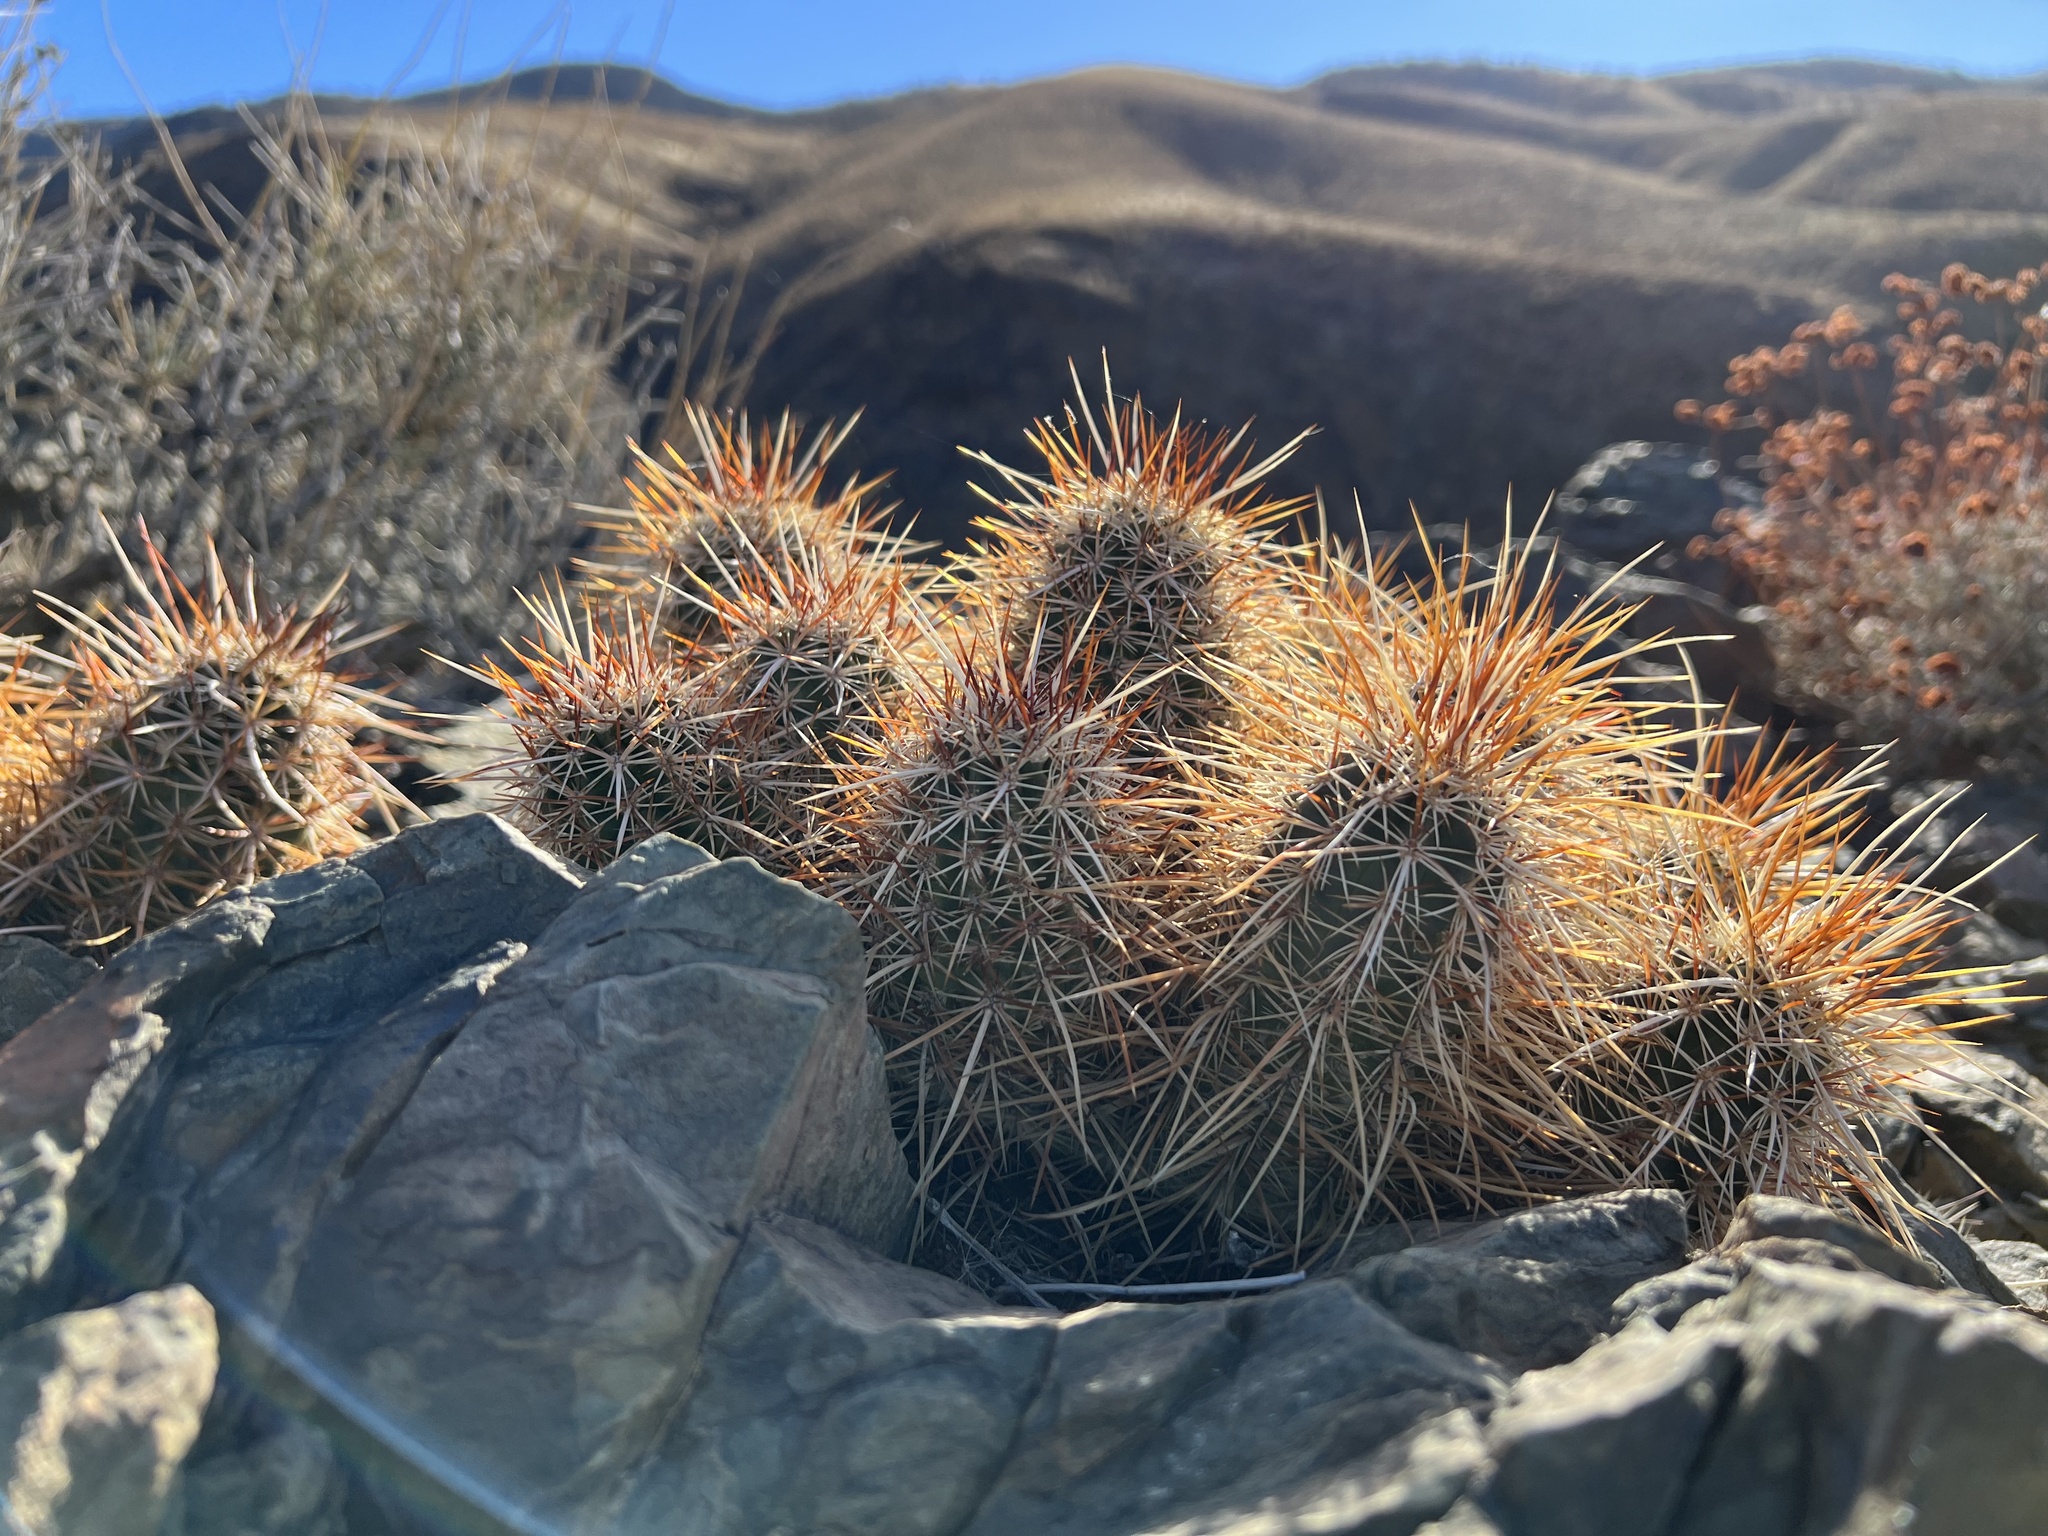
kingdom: Plantae
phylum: Tracheophyta
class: Magnoliopsida
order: Caryophyllales
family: Cactaceae
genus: Echinocereus
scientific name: Echinocereus engelmannii
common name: Engelmann's hedgehog cactus
